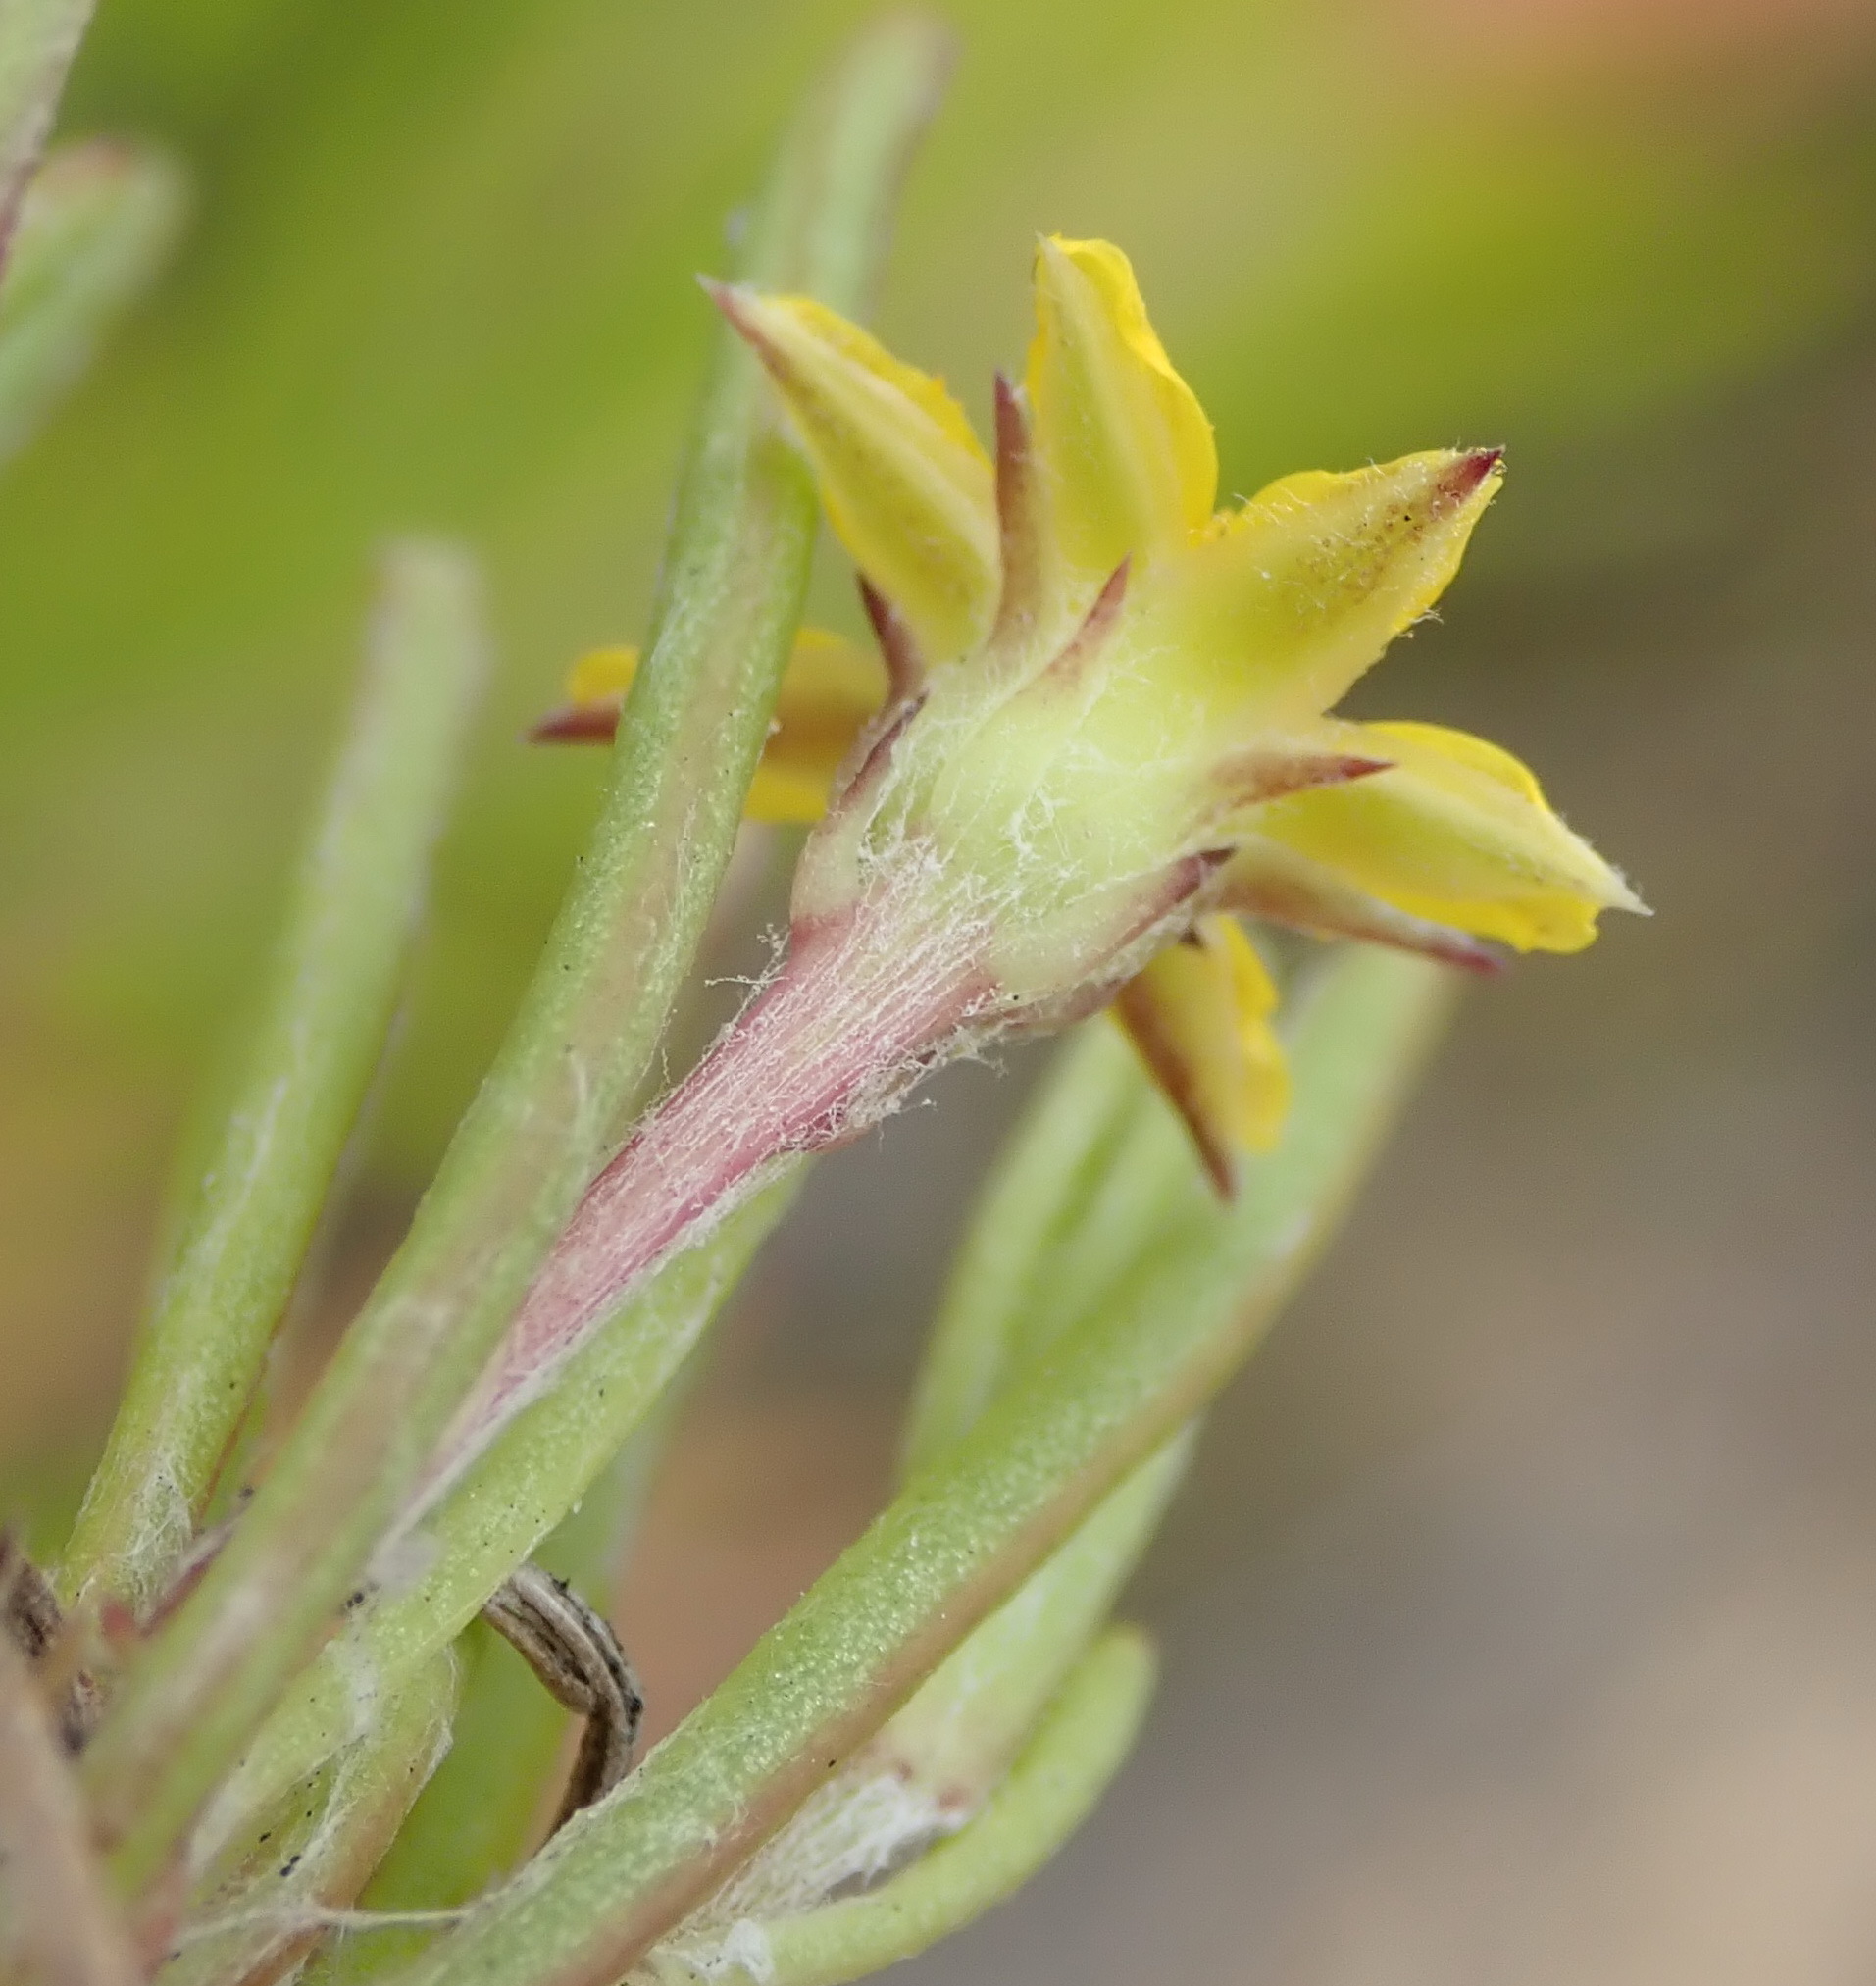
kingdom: Plantae
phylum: Tracheophyta
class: Magnoliopsida
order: Asterales
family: Asteraceae
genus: Osteospermum
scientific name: Osteospermum triquetrum
